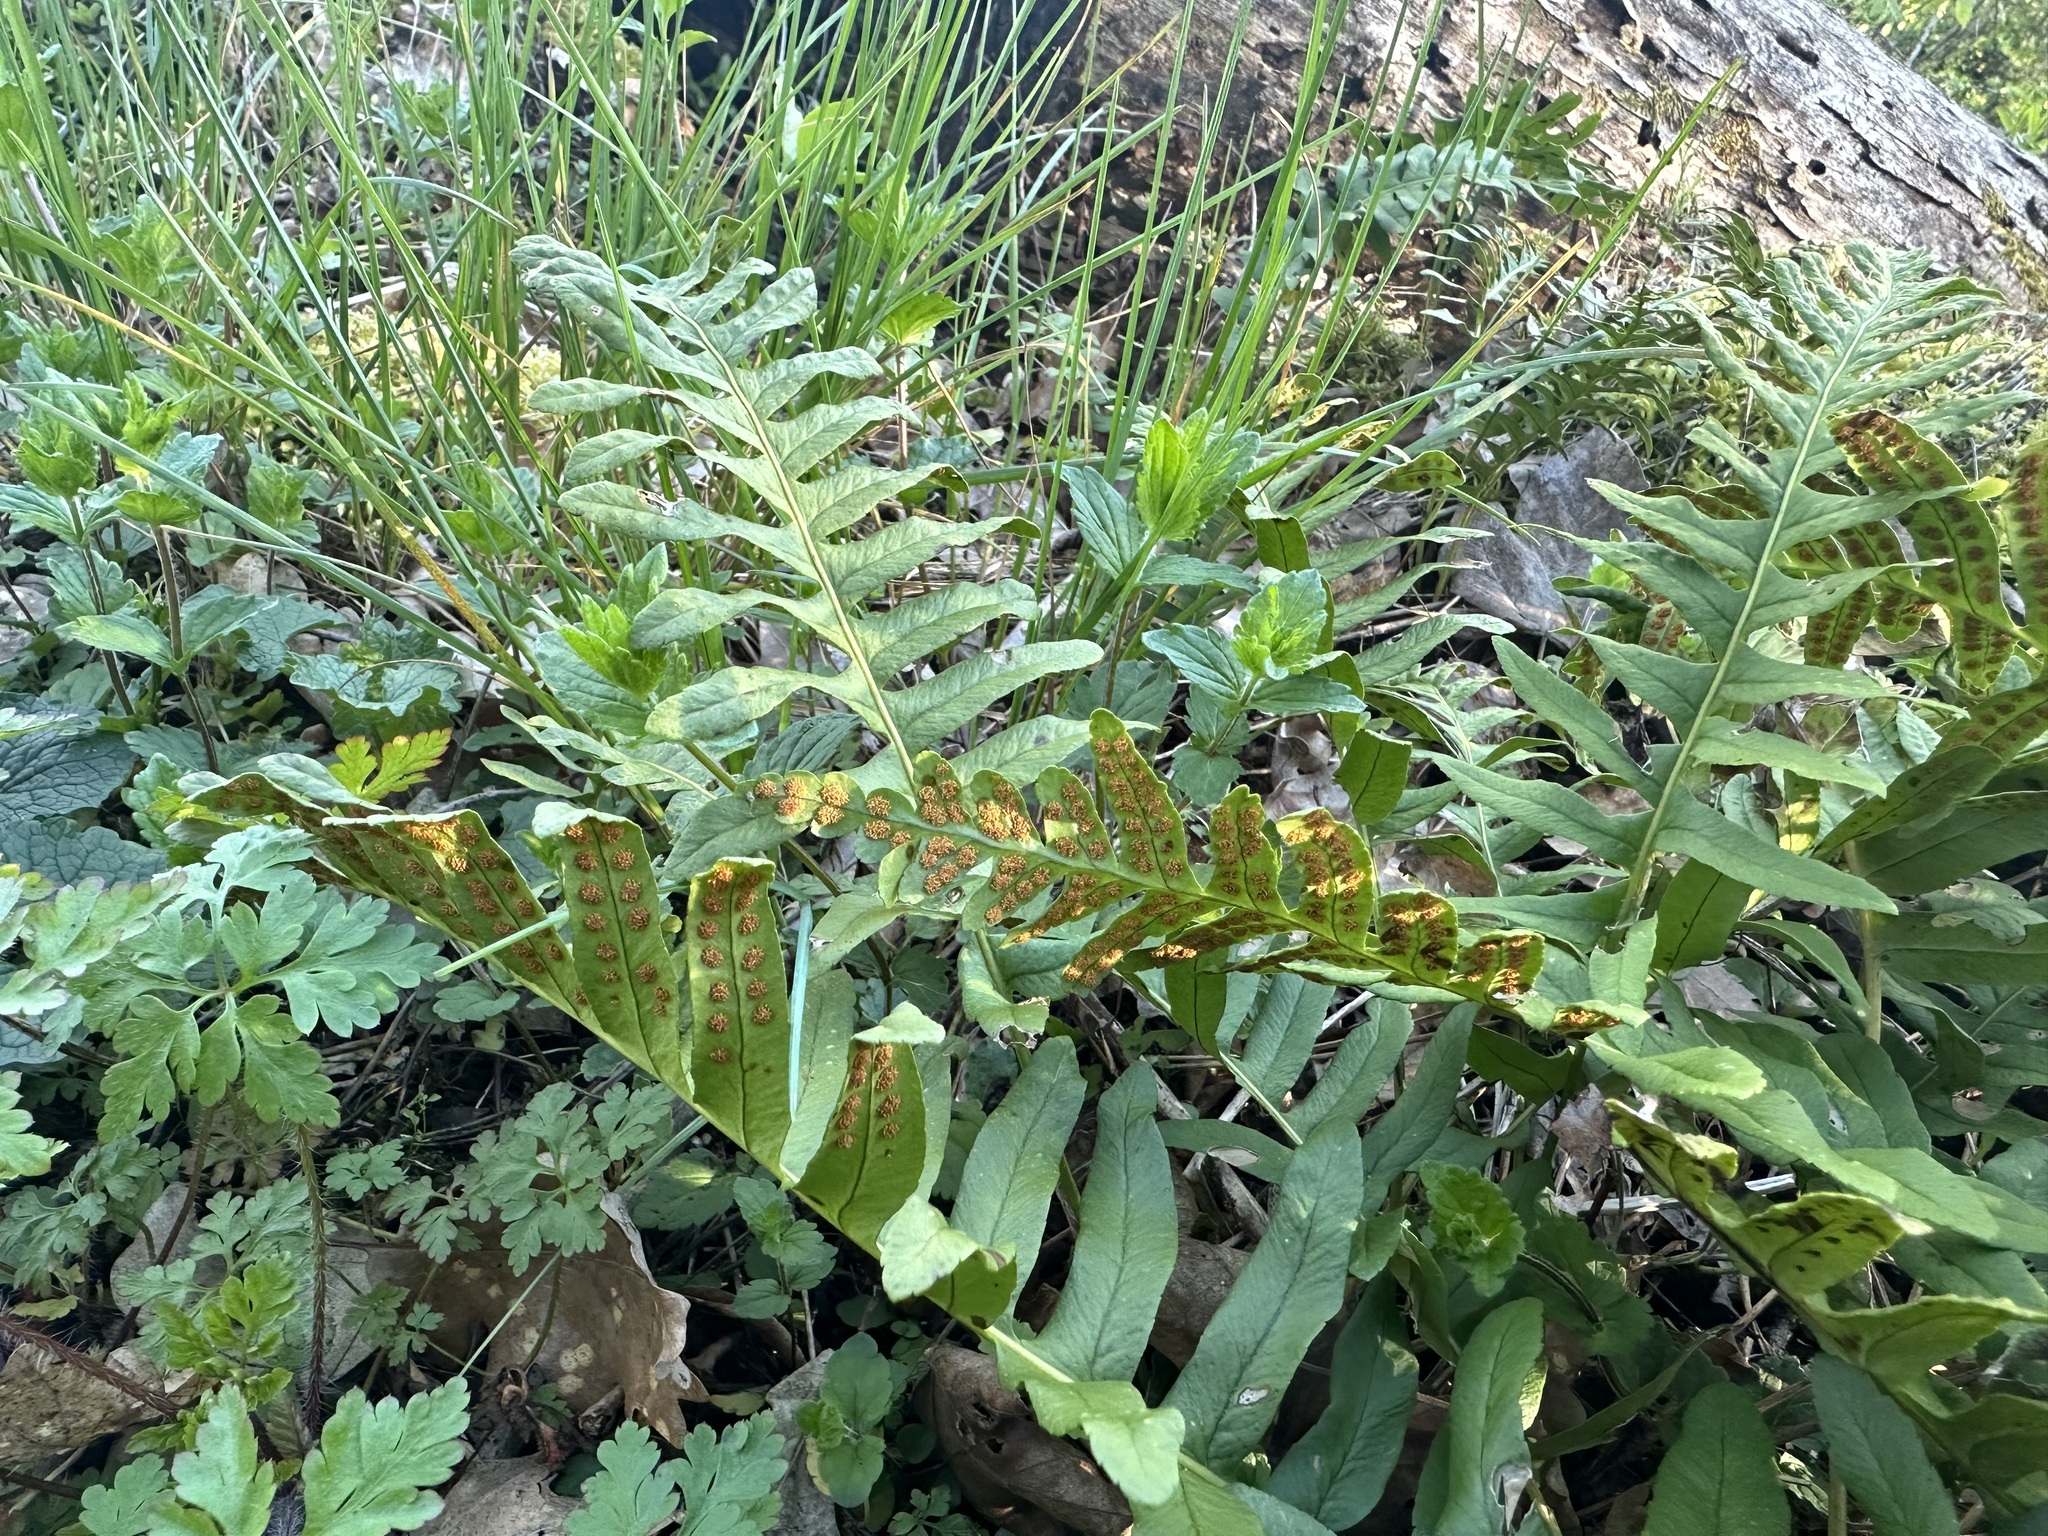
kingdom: Plantae
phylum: Tracheophyta
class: Polypodiopsida
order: Polypodiales
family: Polypodiaceae
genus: Polypodium
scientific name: Polypodium vulgare
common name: Common polypody
